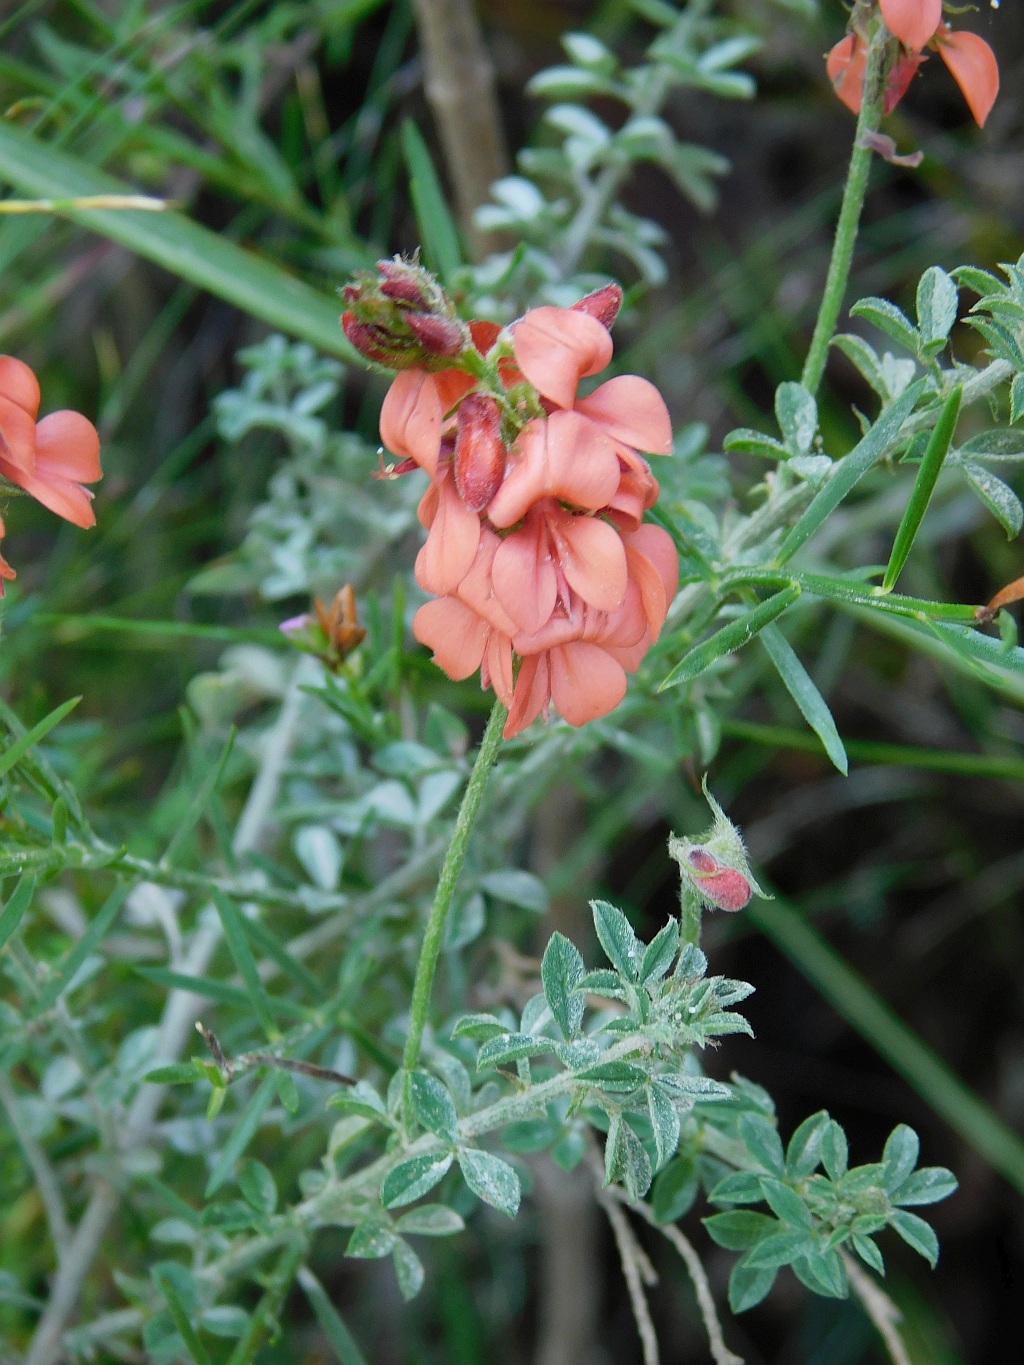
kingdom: Plantae
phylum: Tracheophyta
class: Magnoliopsida
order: Fabales
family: Fabaceae
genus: Indigofera
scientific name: Indigofera priorii
